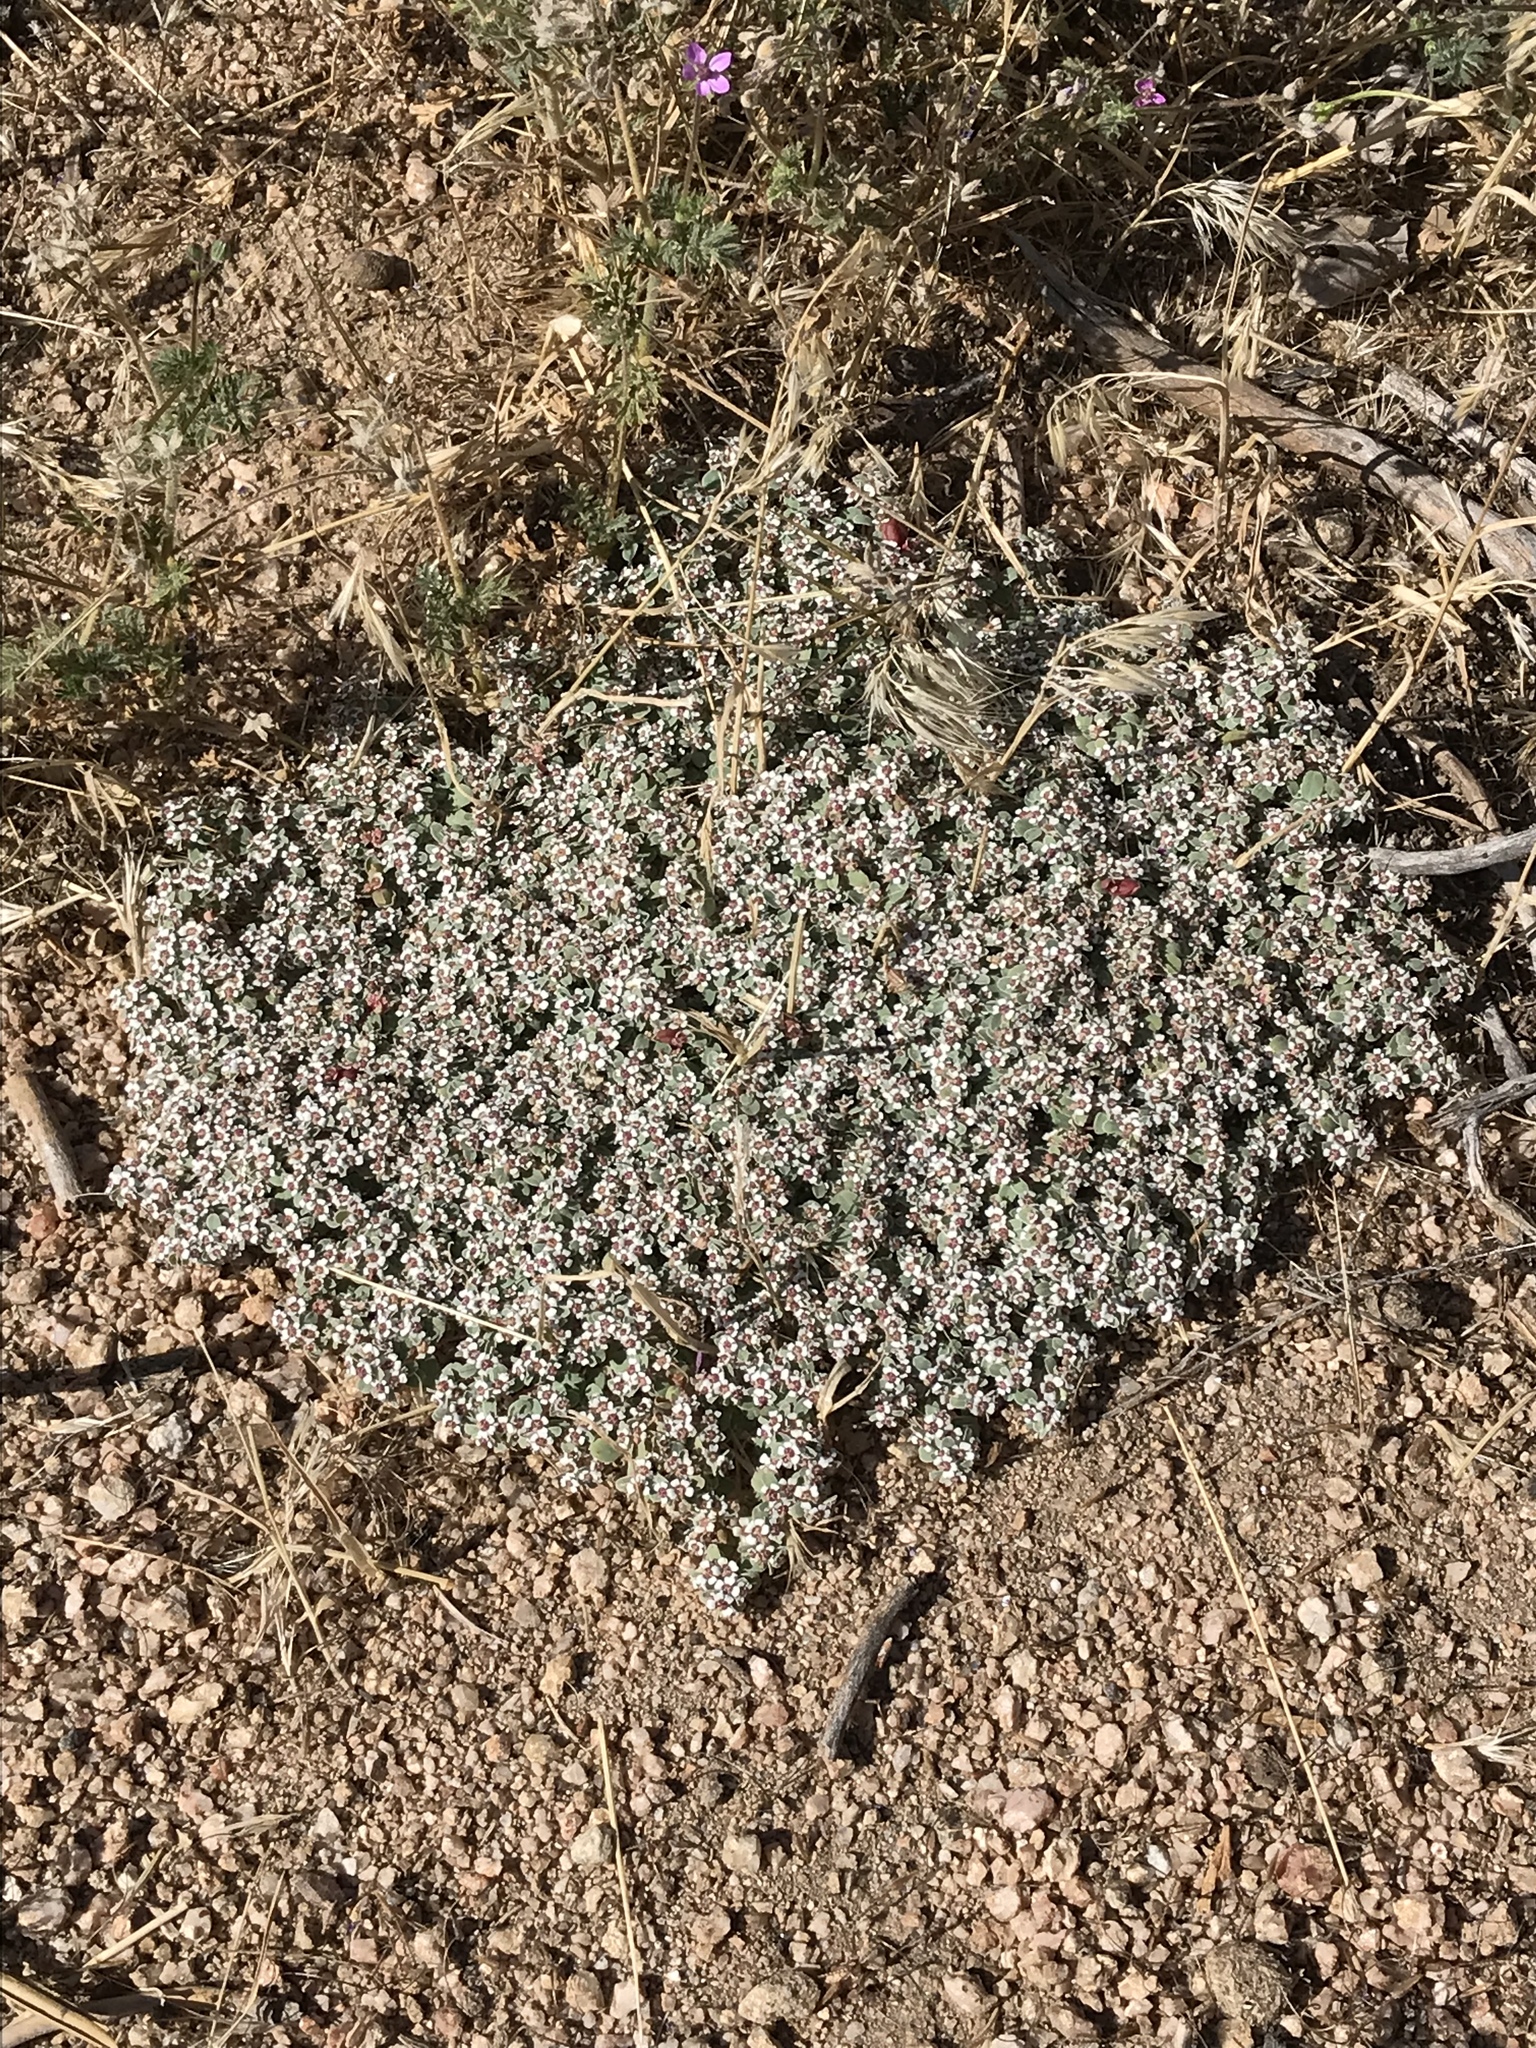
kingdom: Plantae
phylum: Tracheophyta
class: Magnoliopsida
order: Malpighiales
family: Euphorbiaceae
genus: Euphorbia
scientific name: Euphorbia albomarginata
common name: Whitemargin sandmat
